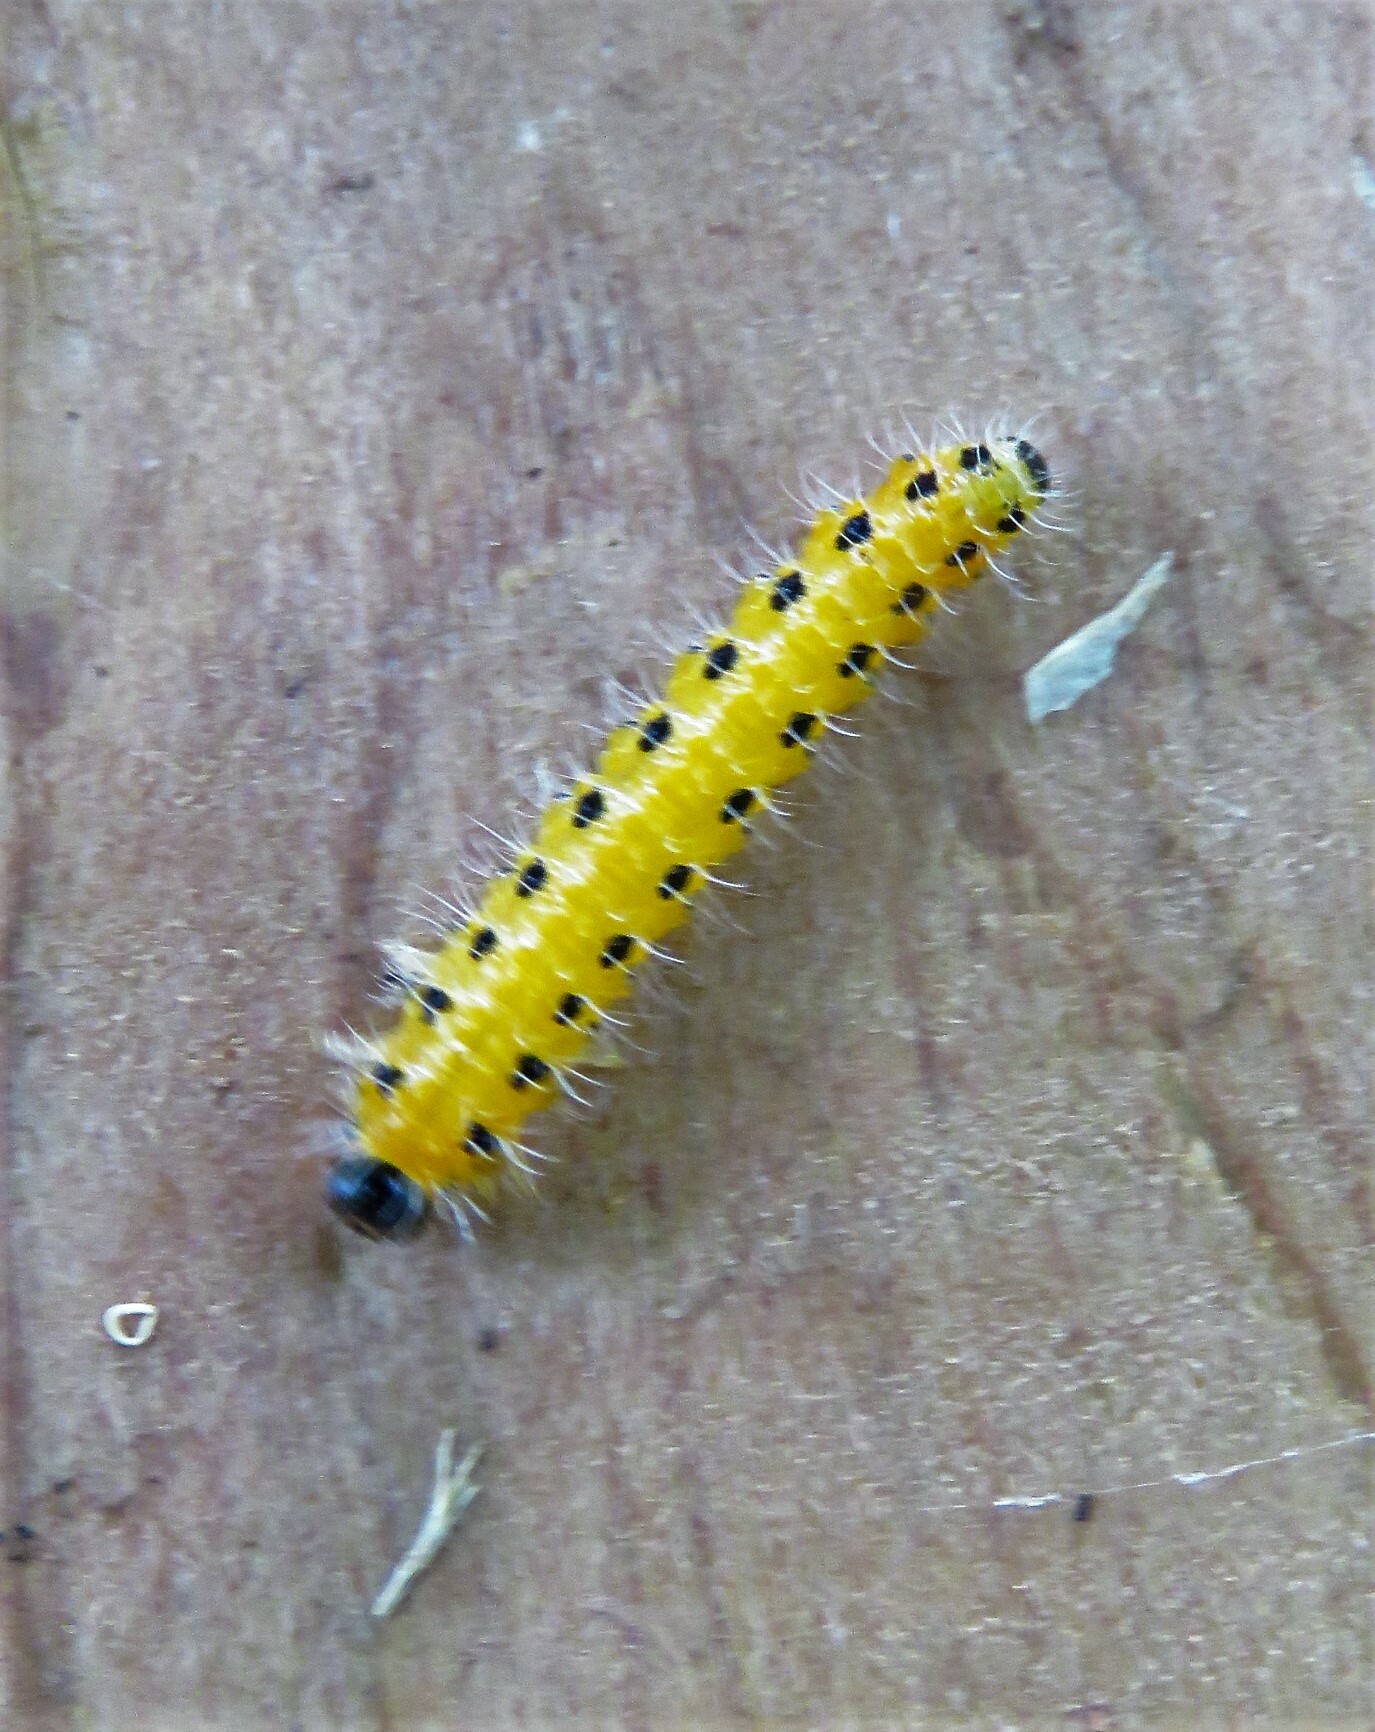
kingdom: Animalia
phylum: Arthropoda
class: Insecta
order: Hymenoptera
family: Tenthredinidae
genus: Cladius
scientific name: Cladius grandis
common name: Common sawfly
